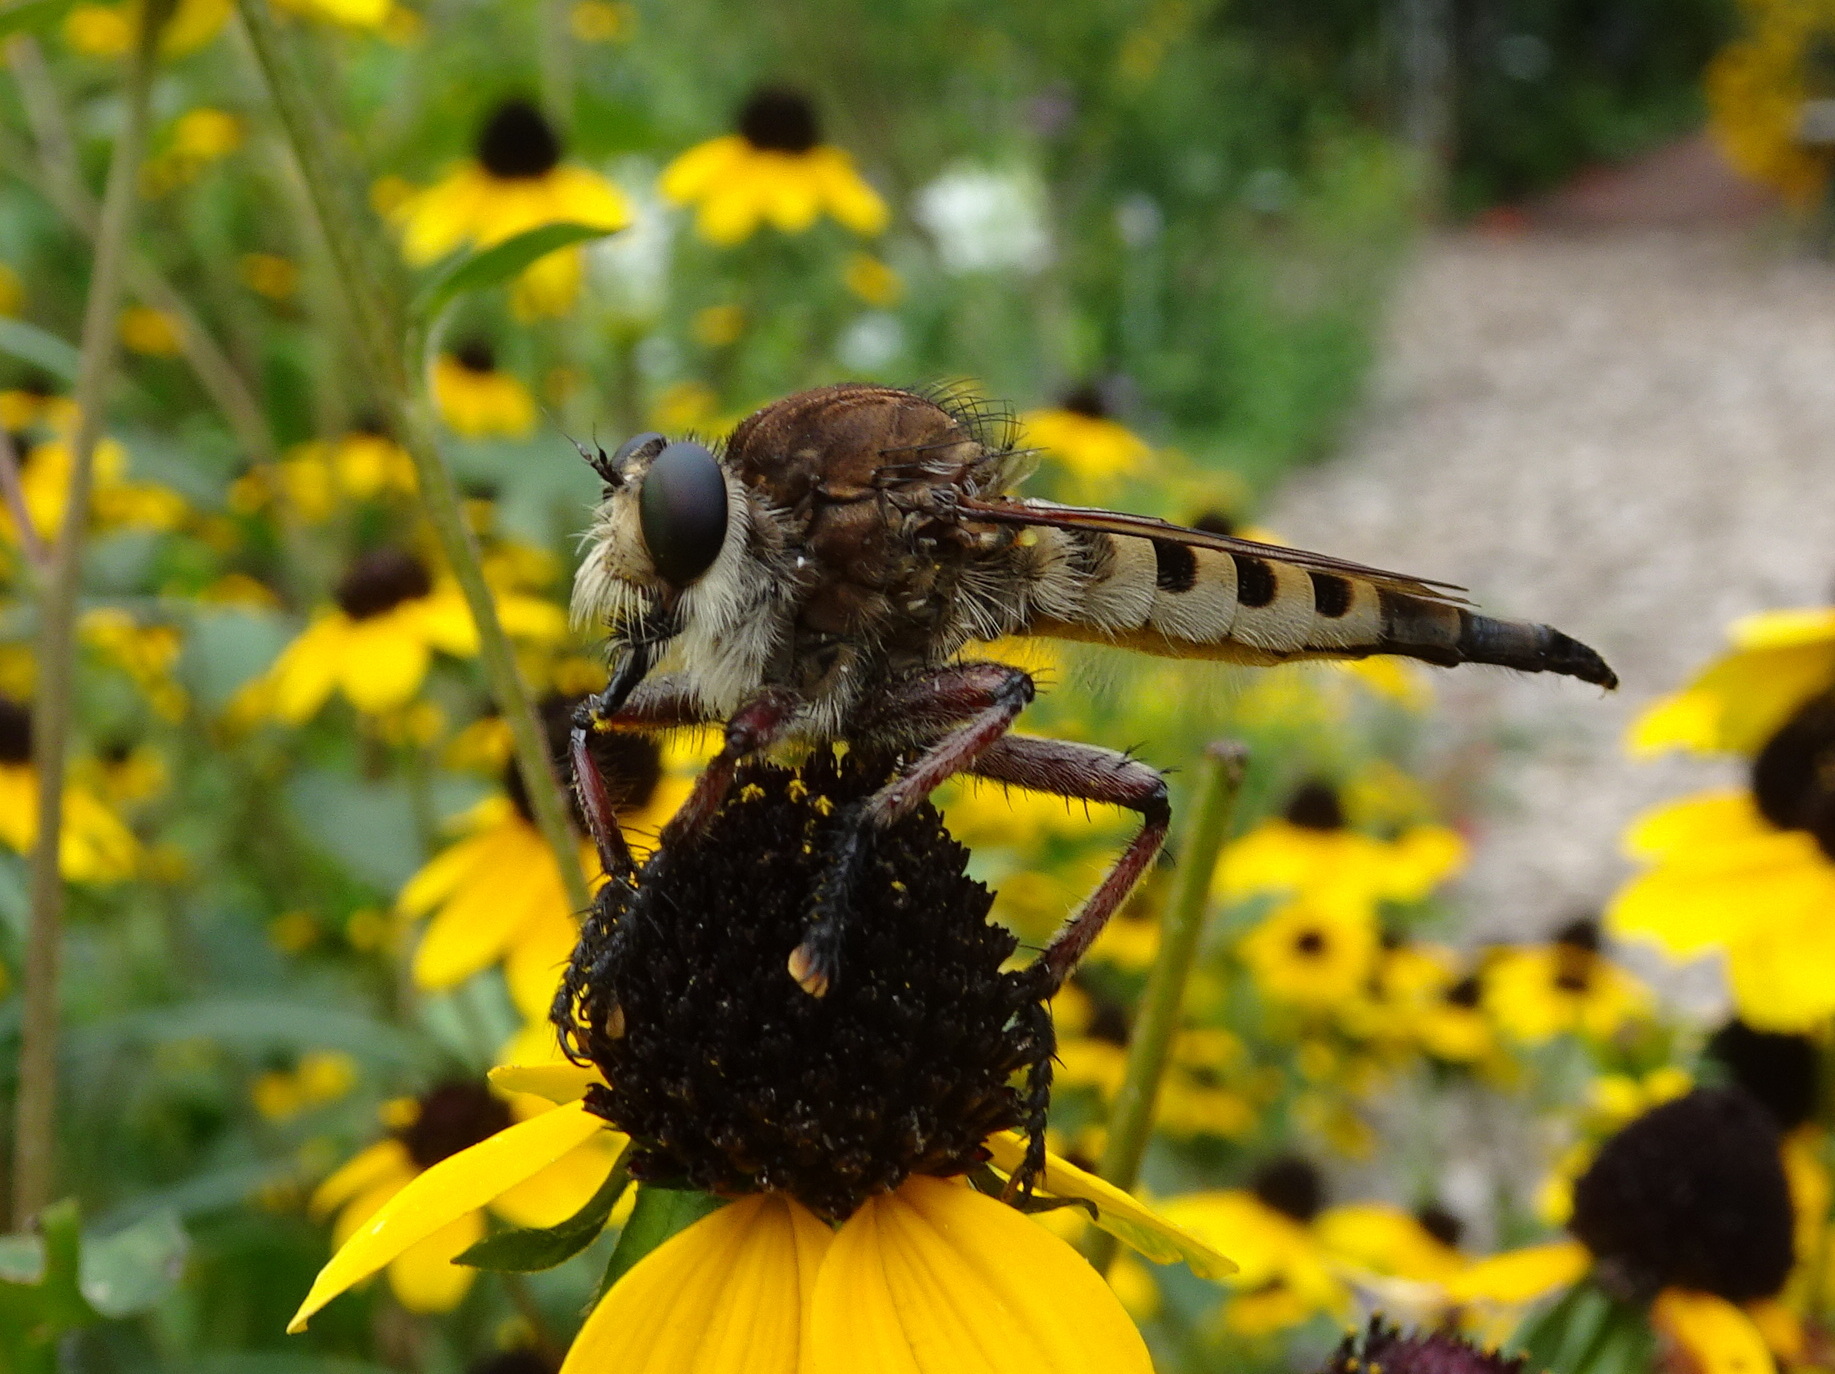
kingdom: Animalia
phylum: Arthropoda
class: Insecta
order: Diptera
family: Asilidae
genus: Promachus
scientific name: Promachus hinei
